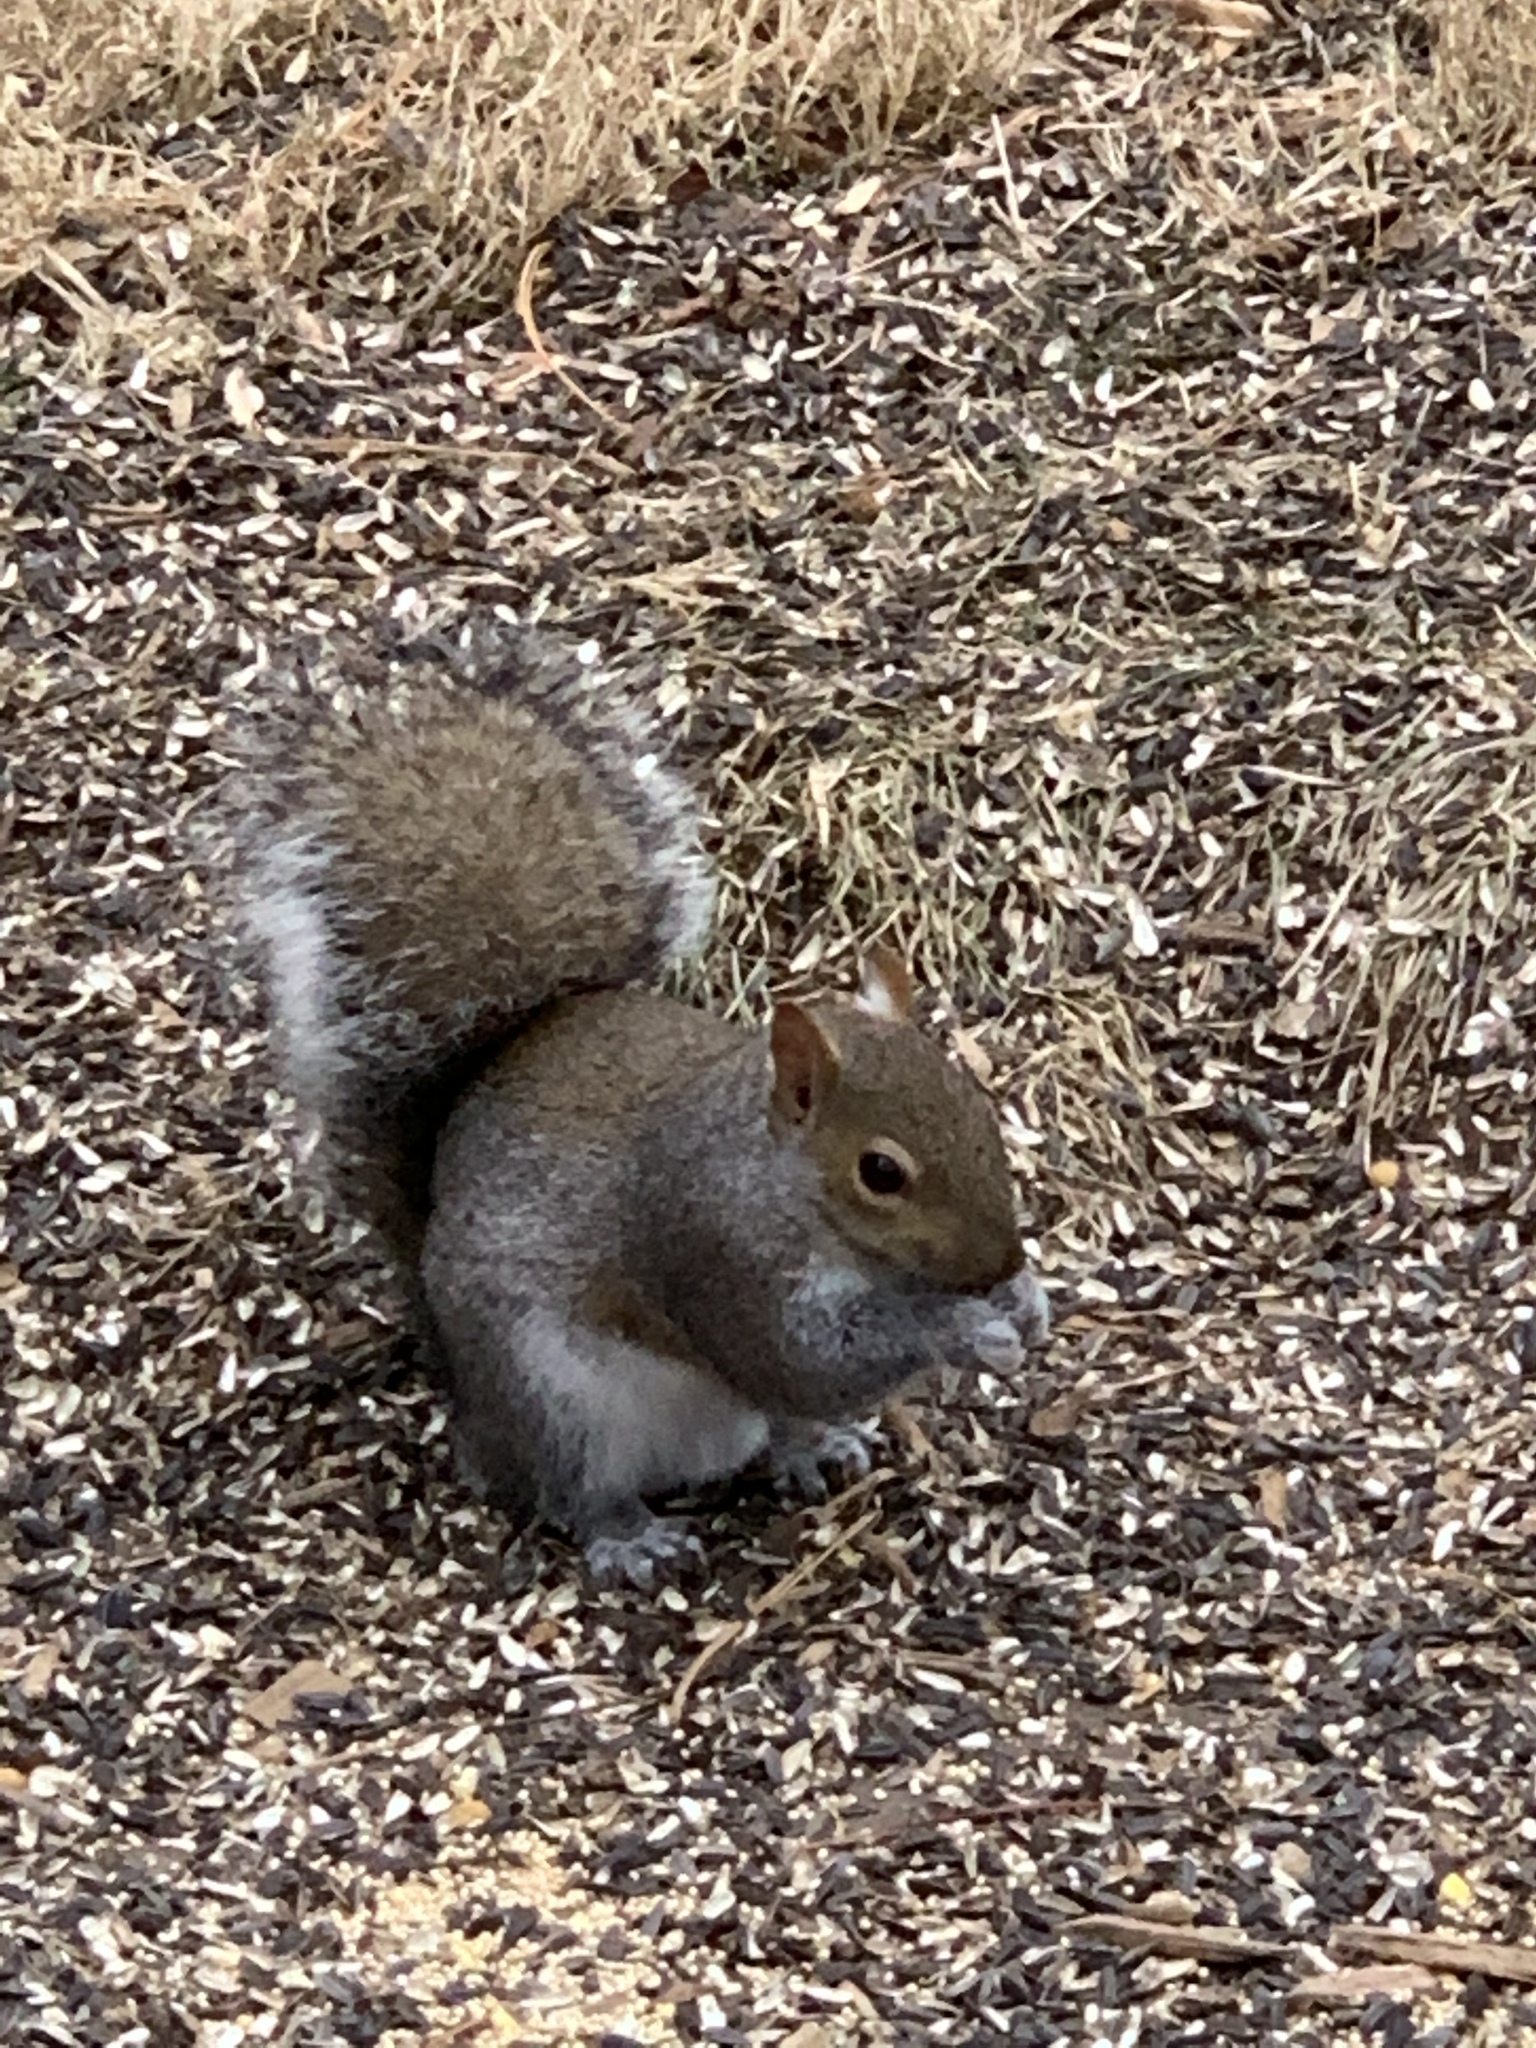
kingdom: Animalia
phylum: Chordata
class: Mammalia
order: Rodentia
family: Sciuridae
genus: Sciurus
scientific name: Sciurus carolinensis
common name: Eastern gray squirrel
